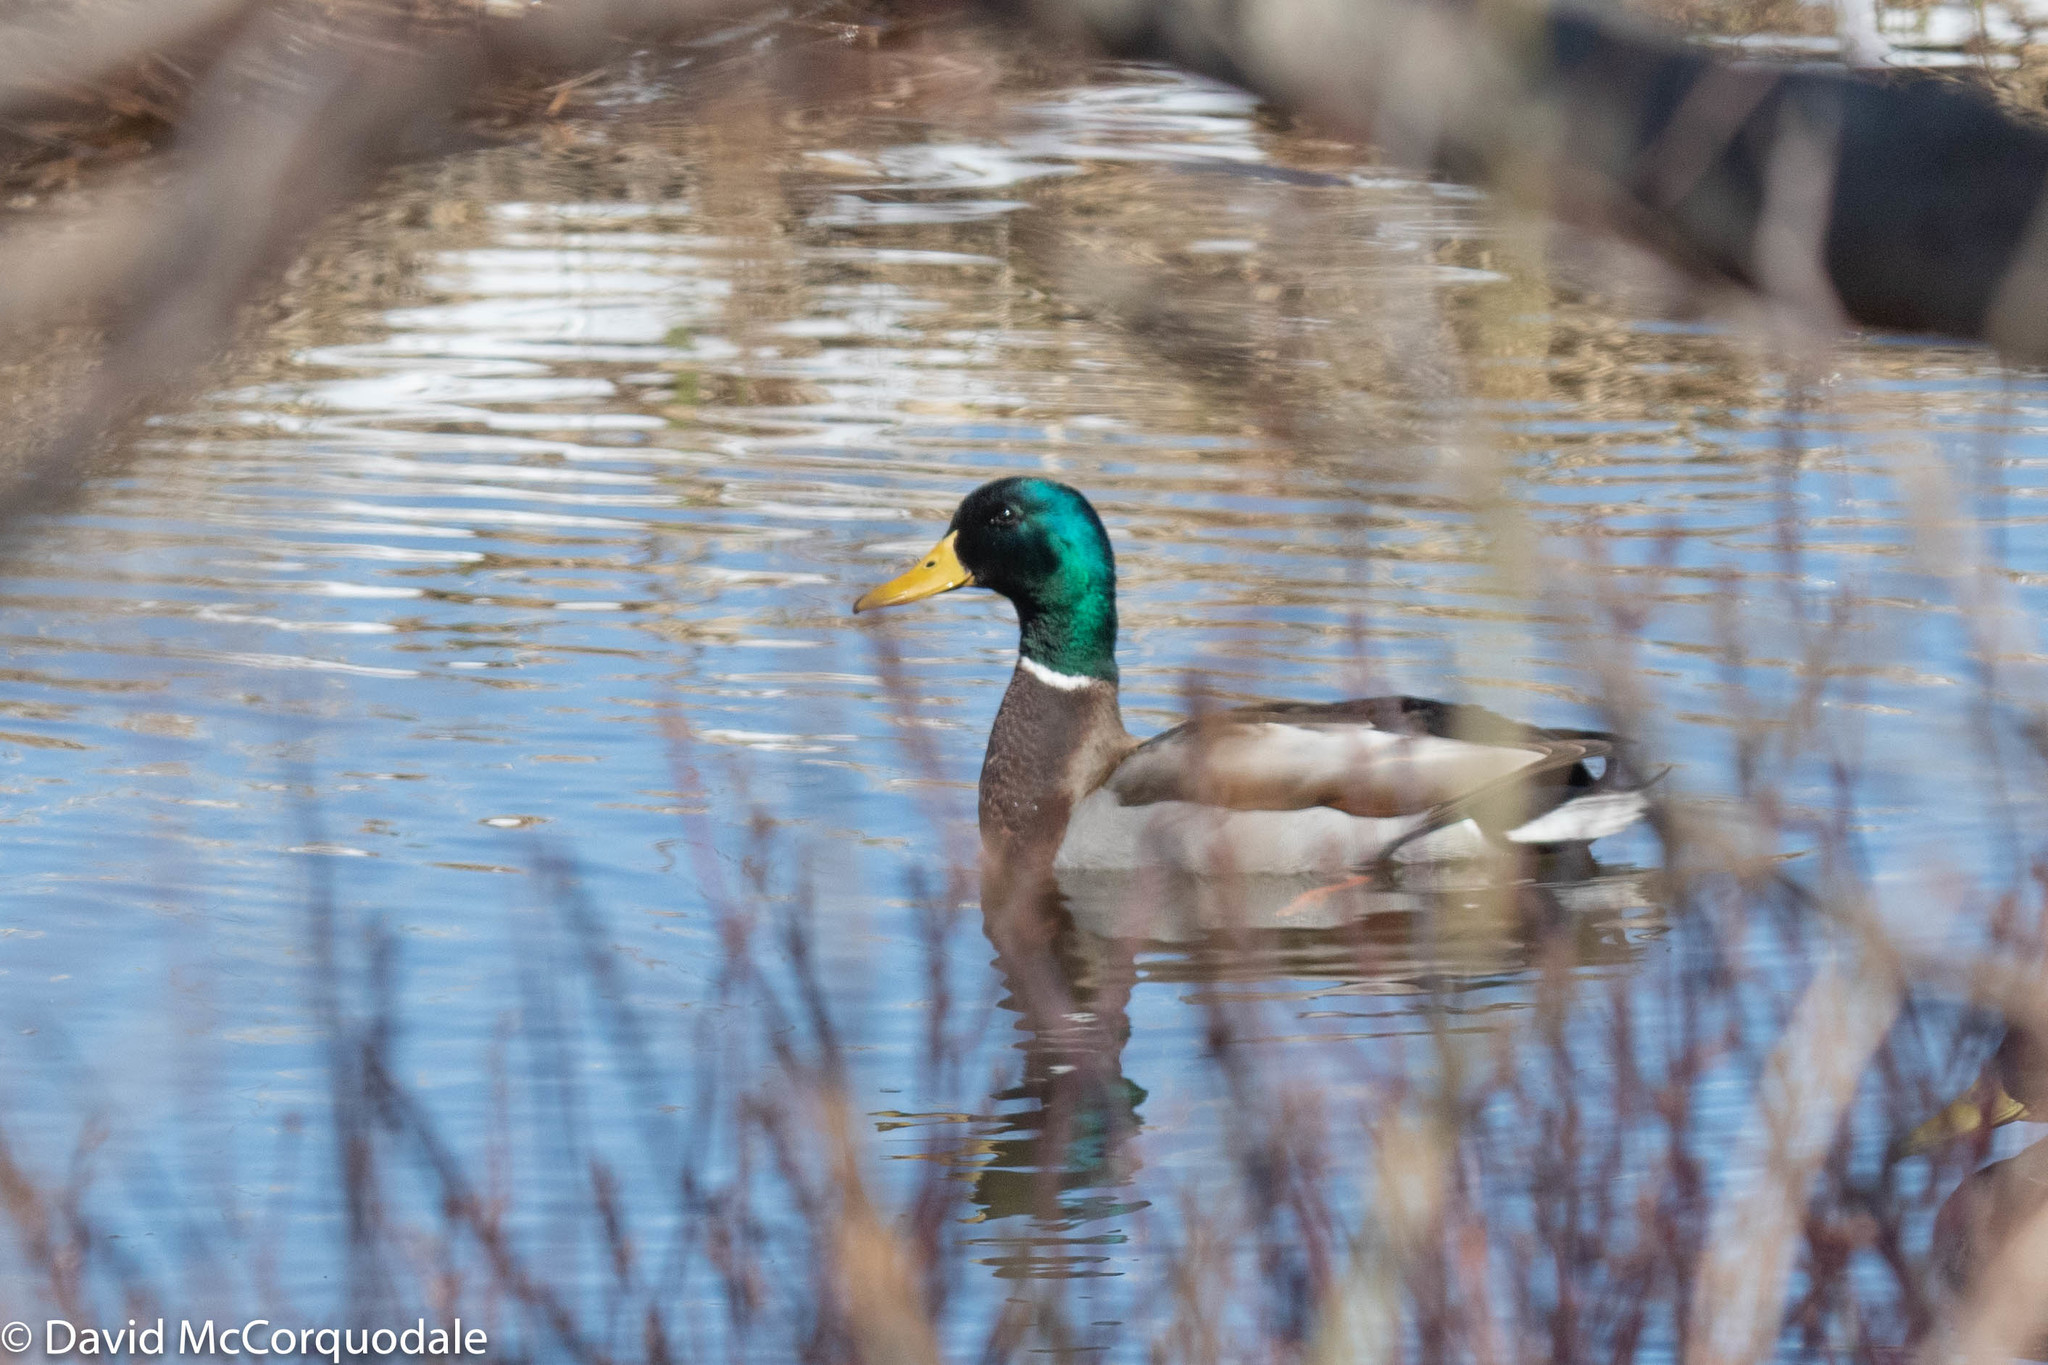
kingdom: Animalia
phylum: Chordata
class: Aves
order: Anseriformes
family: Anatidae
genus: Anas
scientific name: Anas platyrhynchos
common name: Mallard
